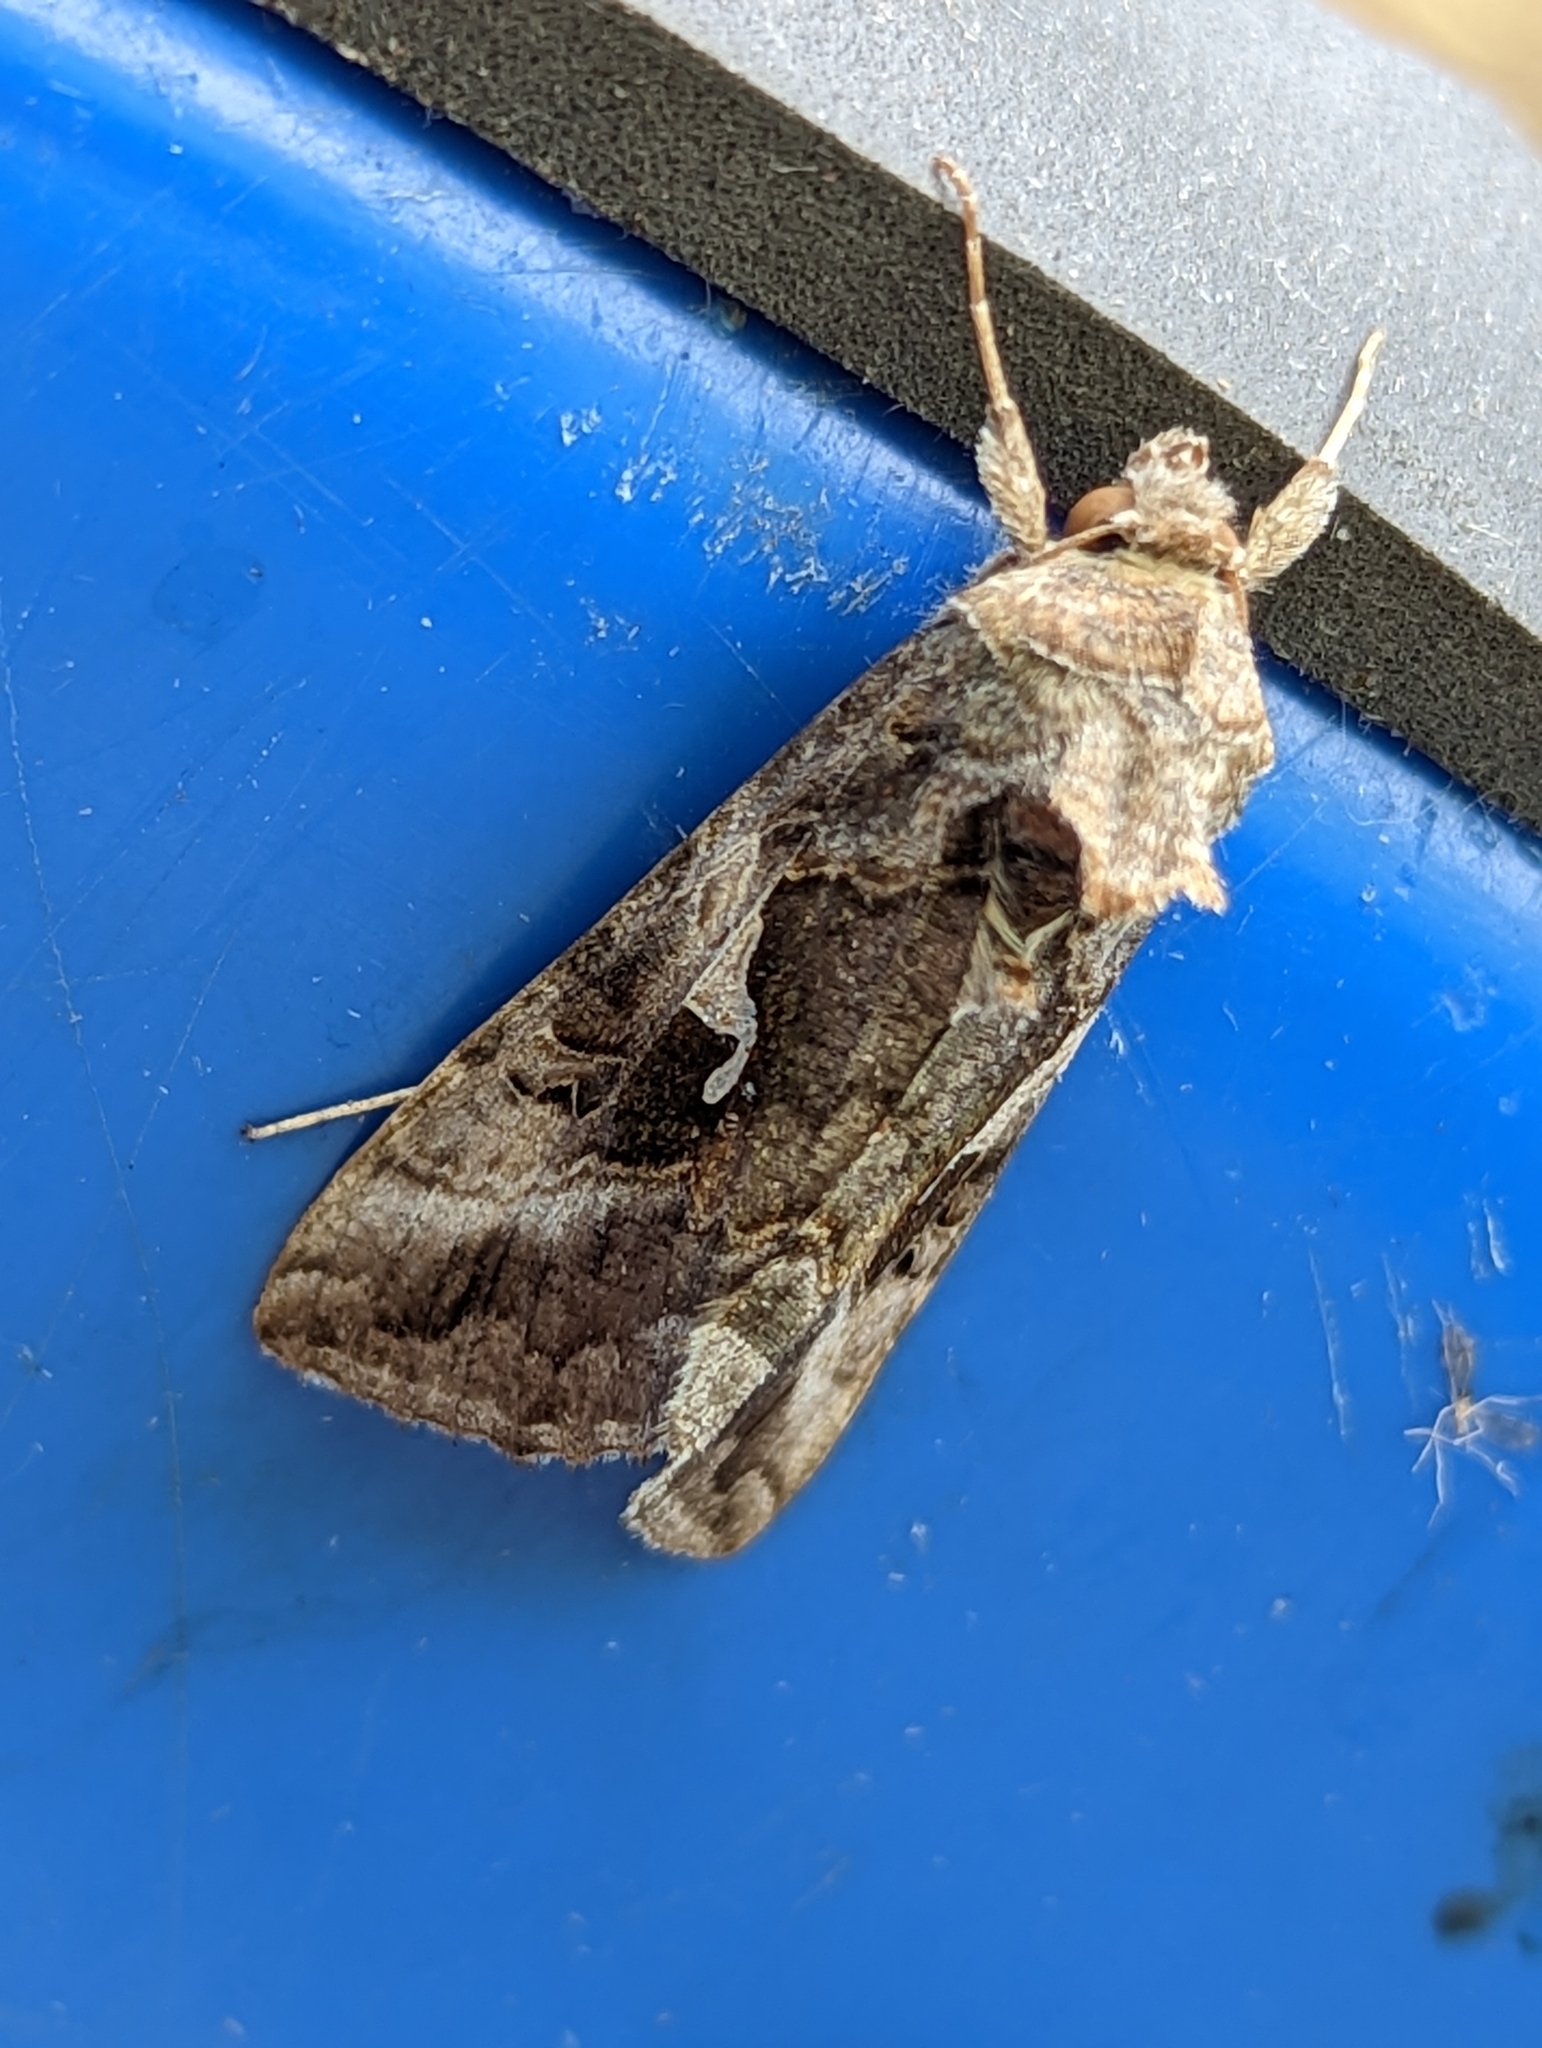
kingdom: Animalia
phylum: Arthropoda
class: Insecta
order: Lepidoptera
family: Noctuidae
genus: Autographa
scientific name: Autographa gamma
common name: Silver y
